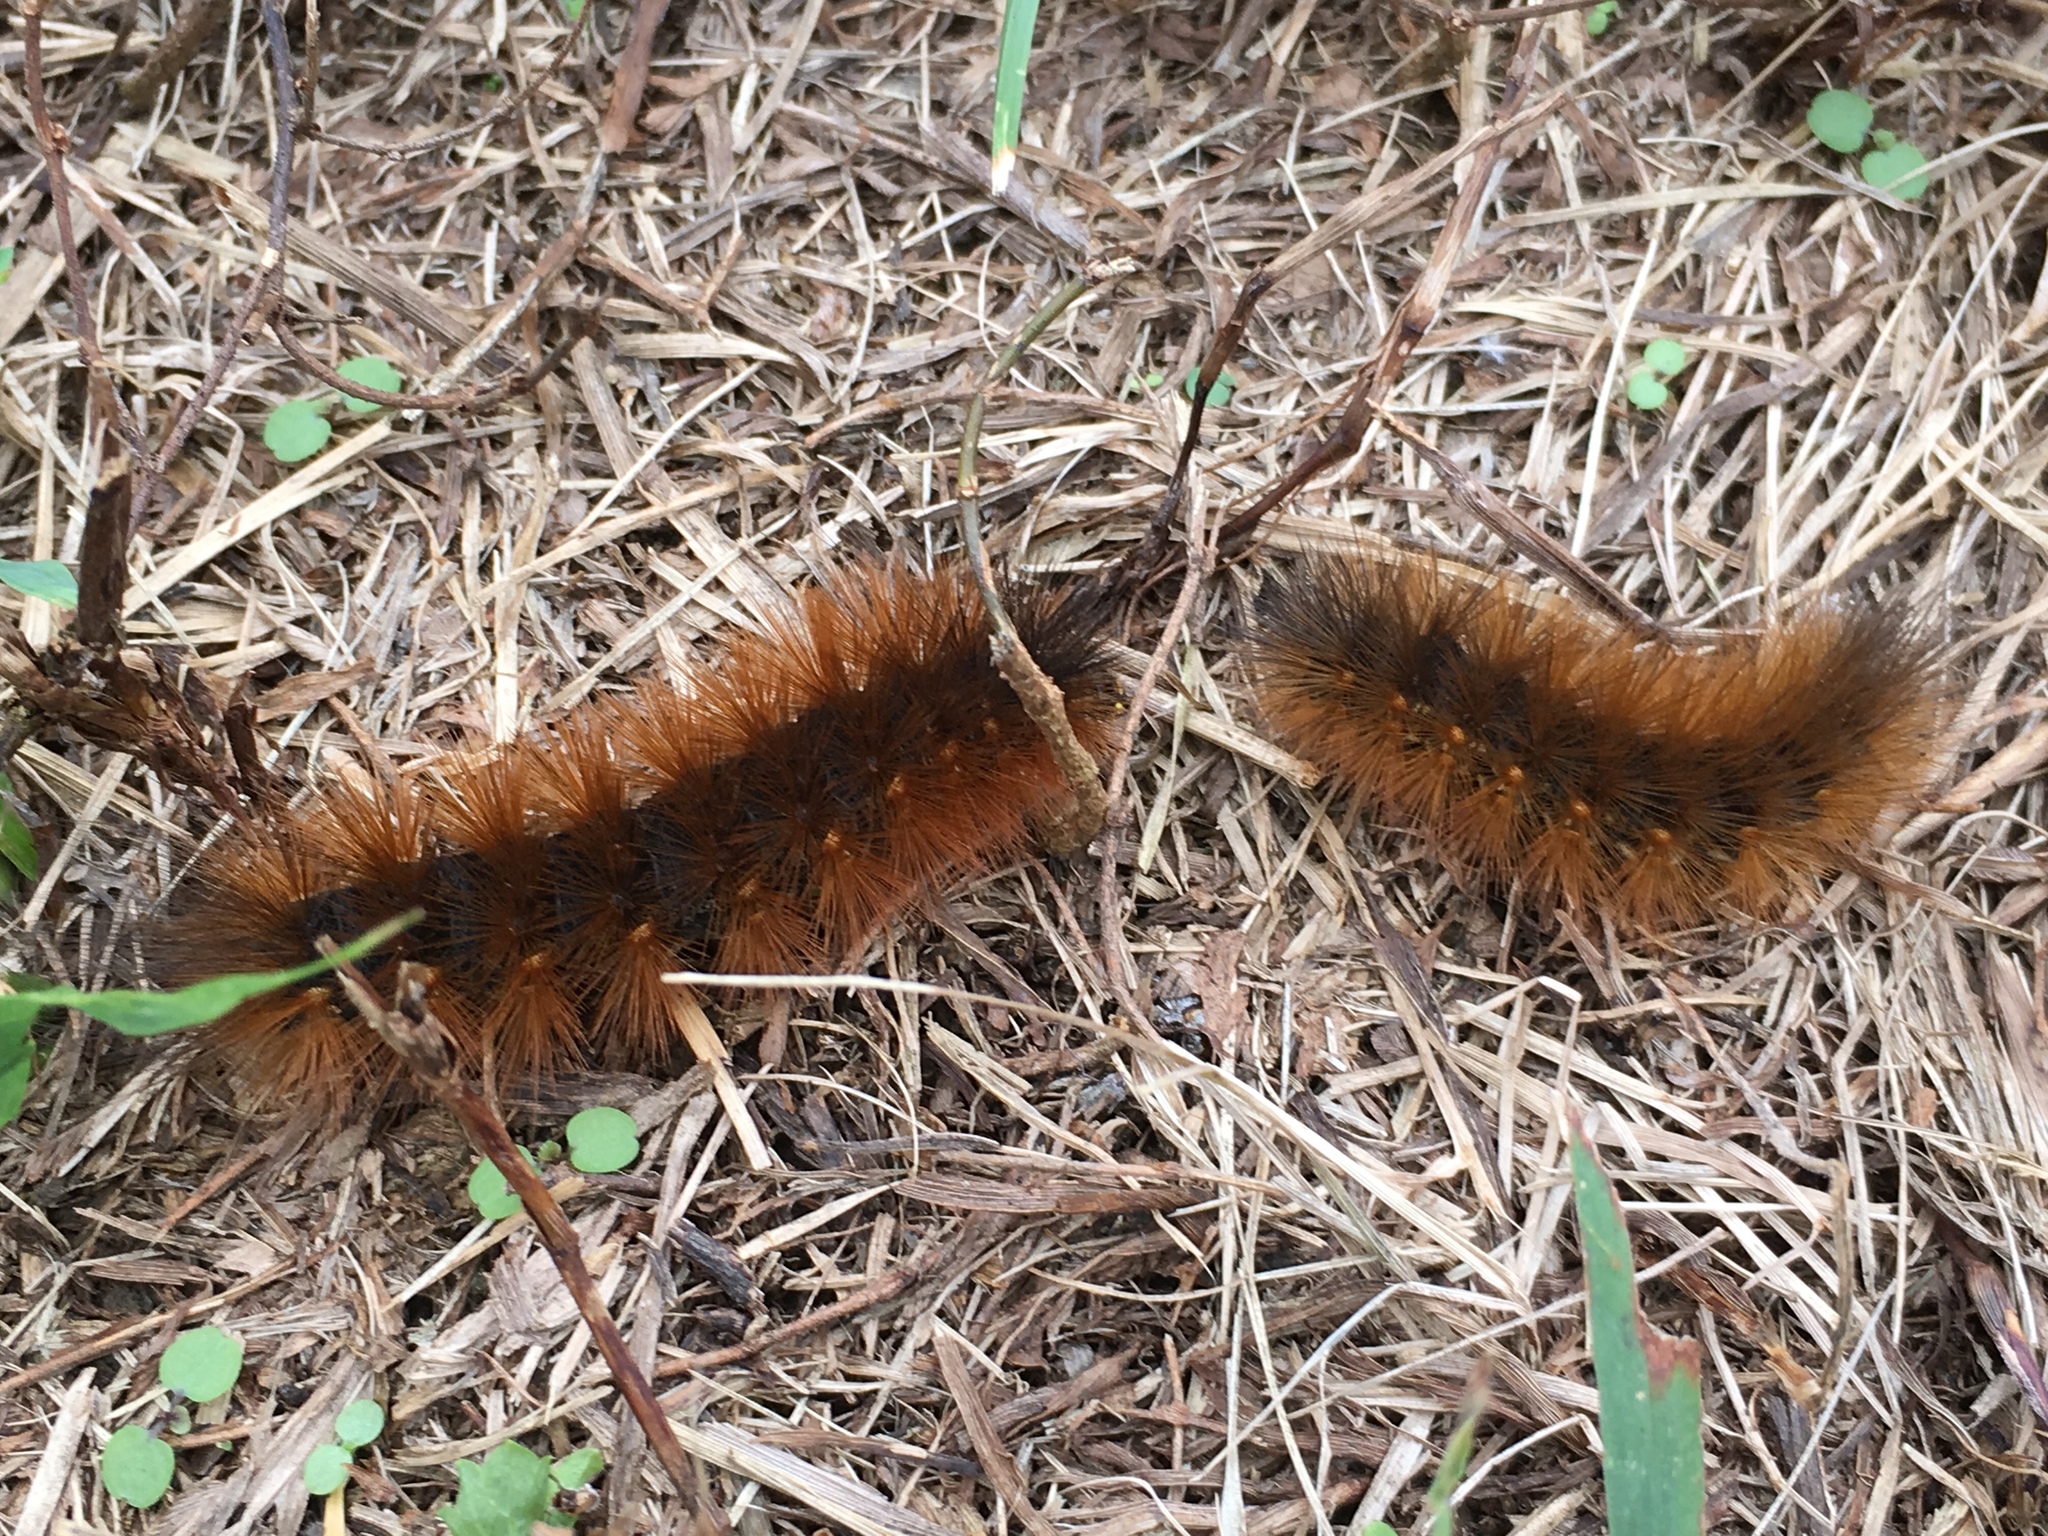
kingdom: Animalia
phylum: Arthropoda
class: Insecta
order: Lepidoptera
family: Erebidae
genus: Estigmene
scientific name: Estigmene acrea
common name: Salt marsh moth
